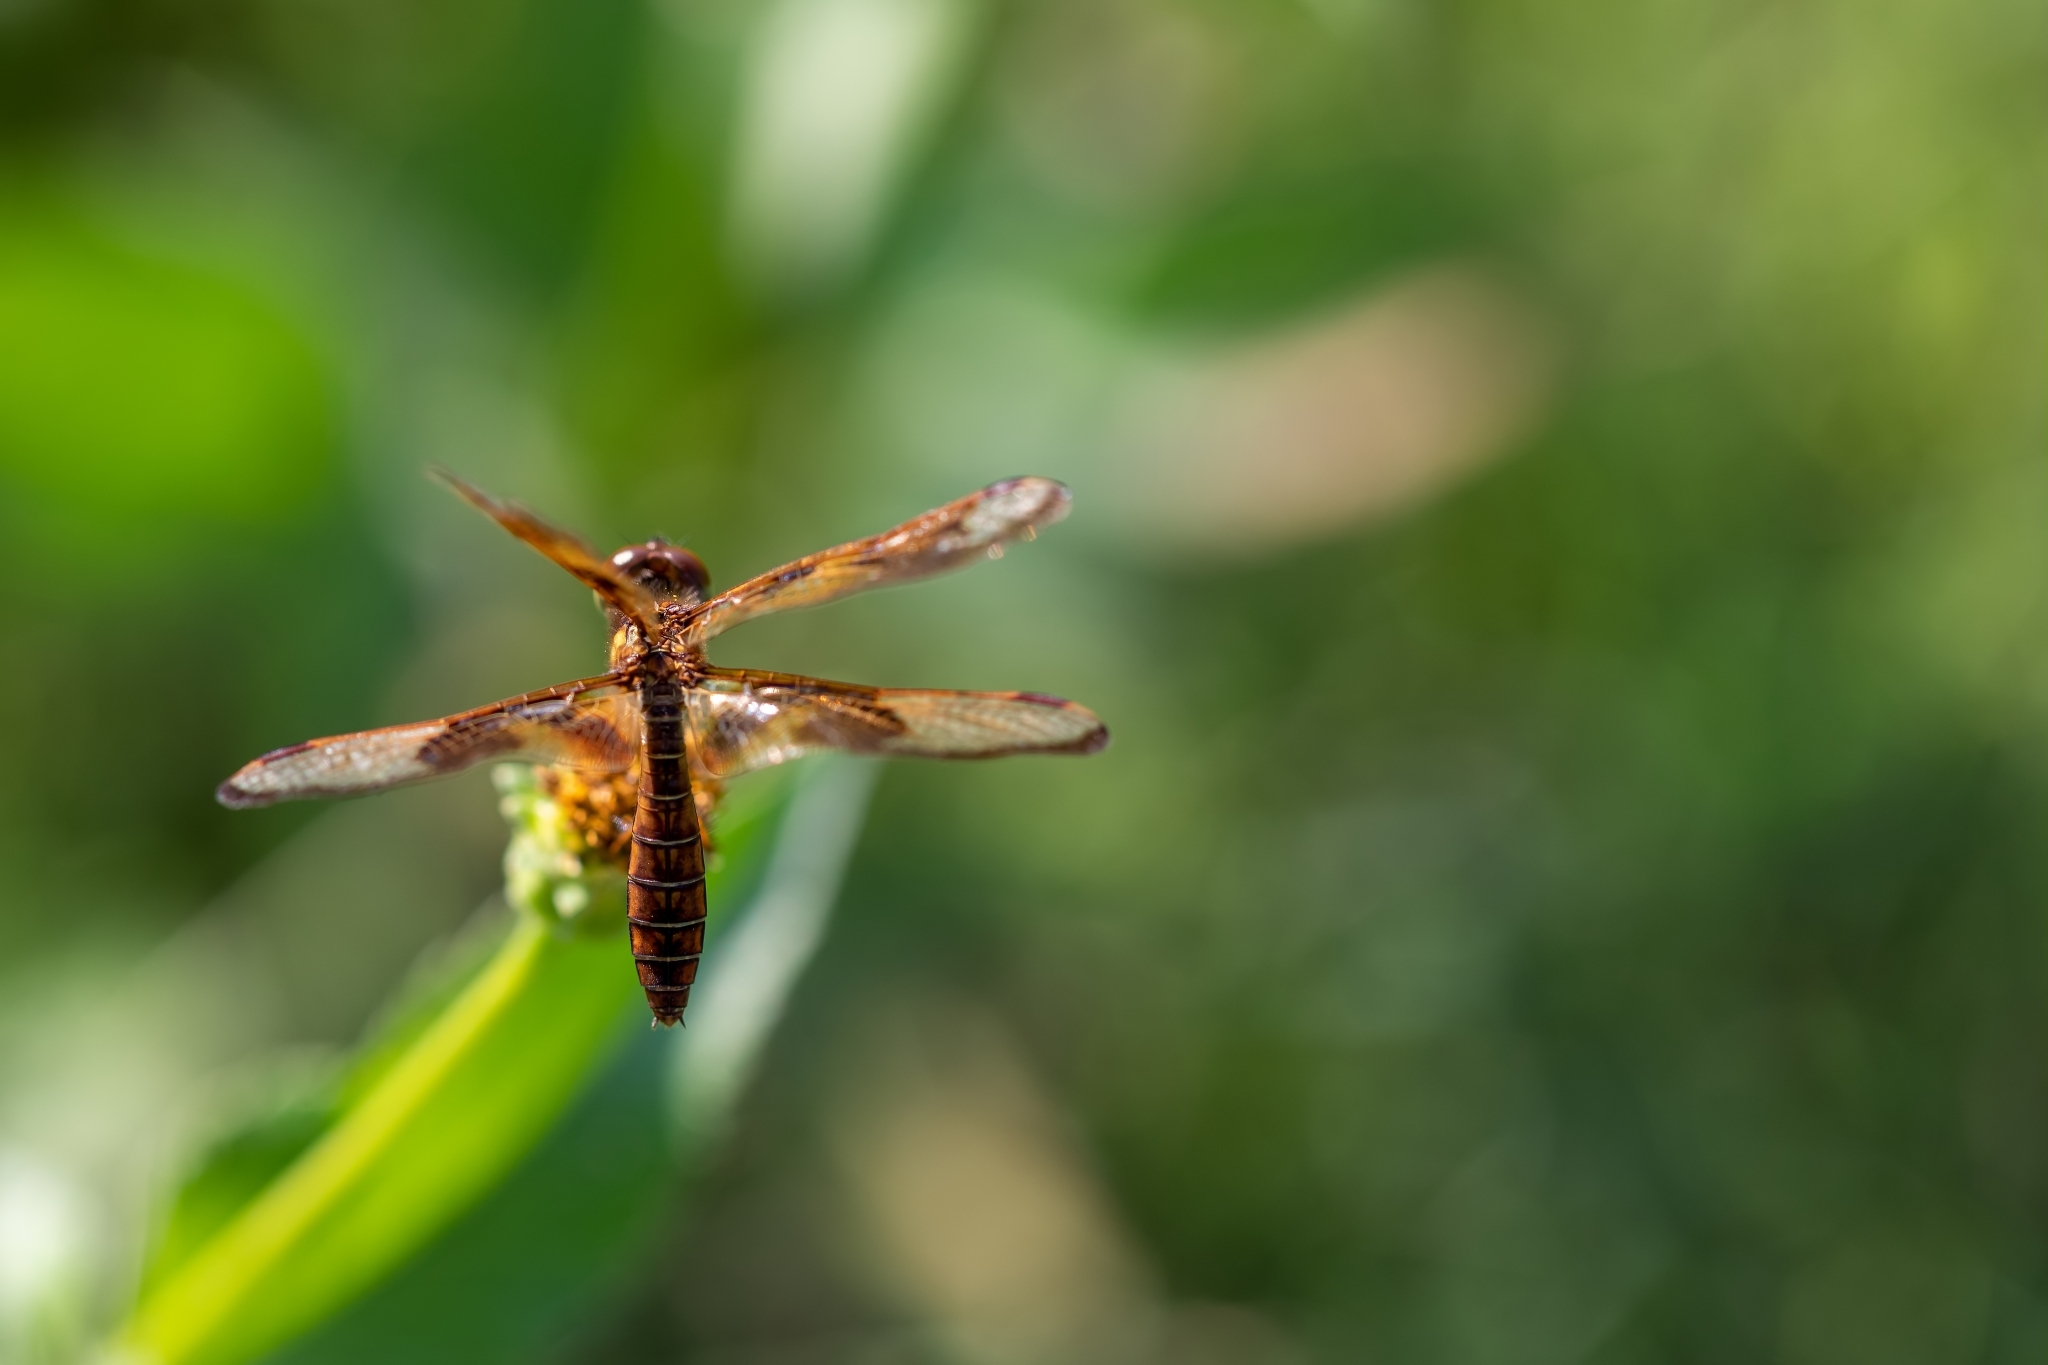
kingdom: Animalia
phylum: Arthropoda
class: Insecta
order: Odonata
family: Libellulidae
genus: Perithemis
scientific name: Perithemis tenera
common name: Eastern amberwing
